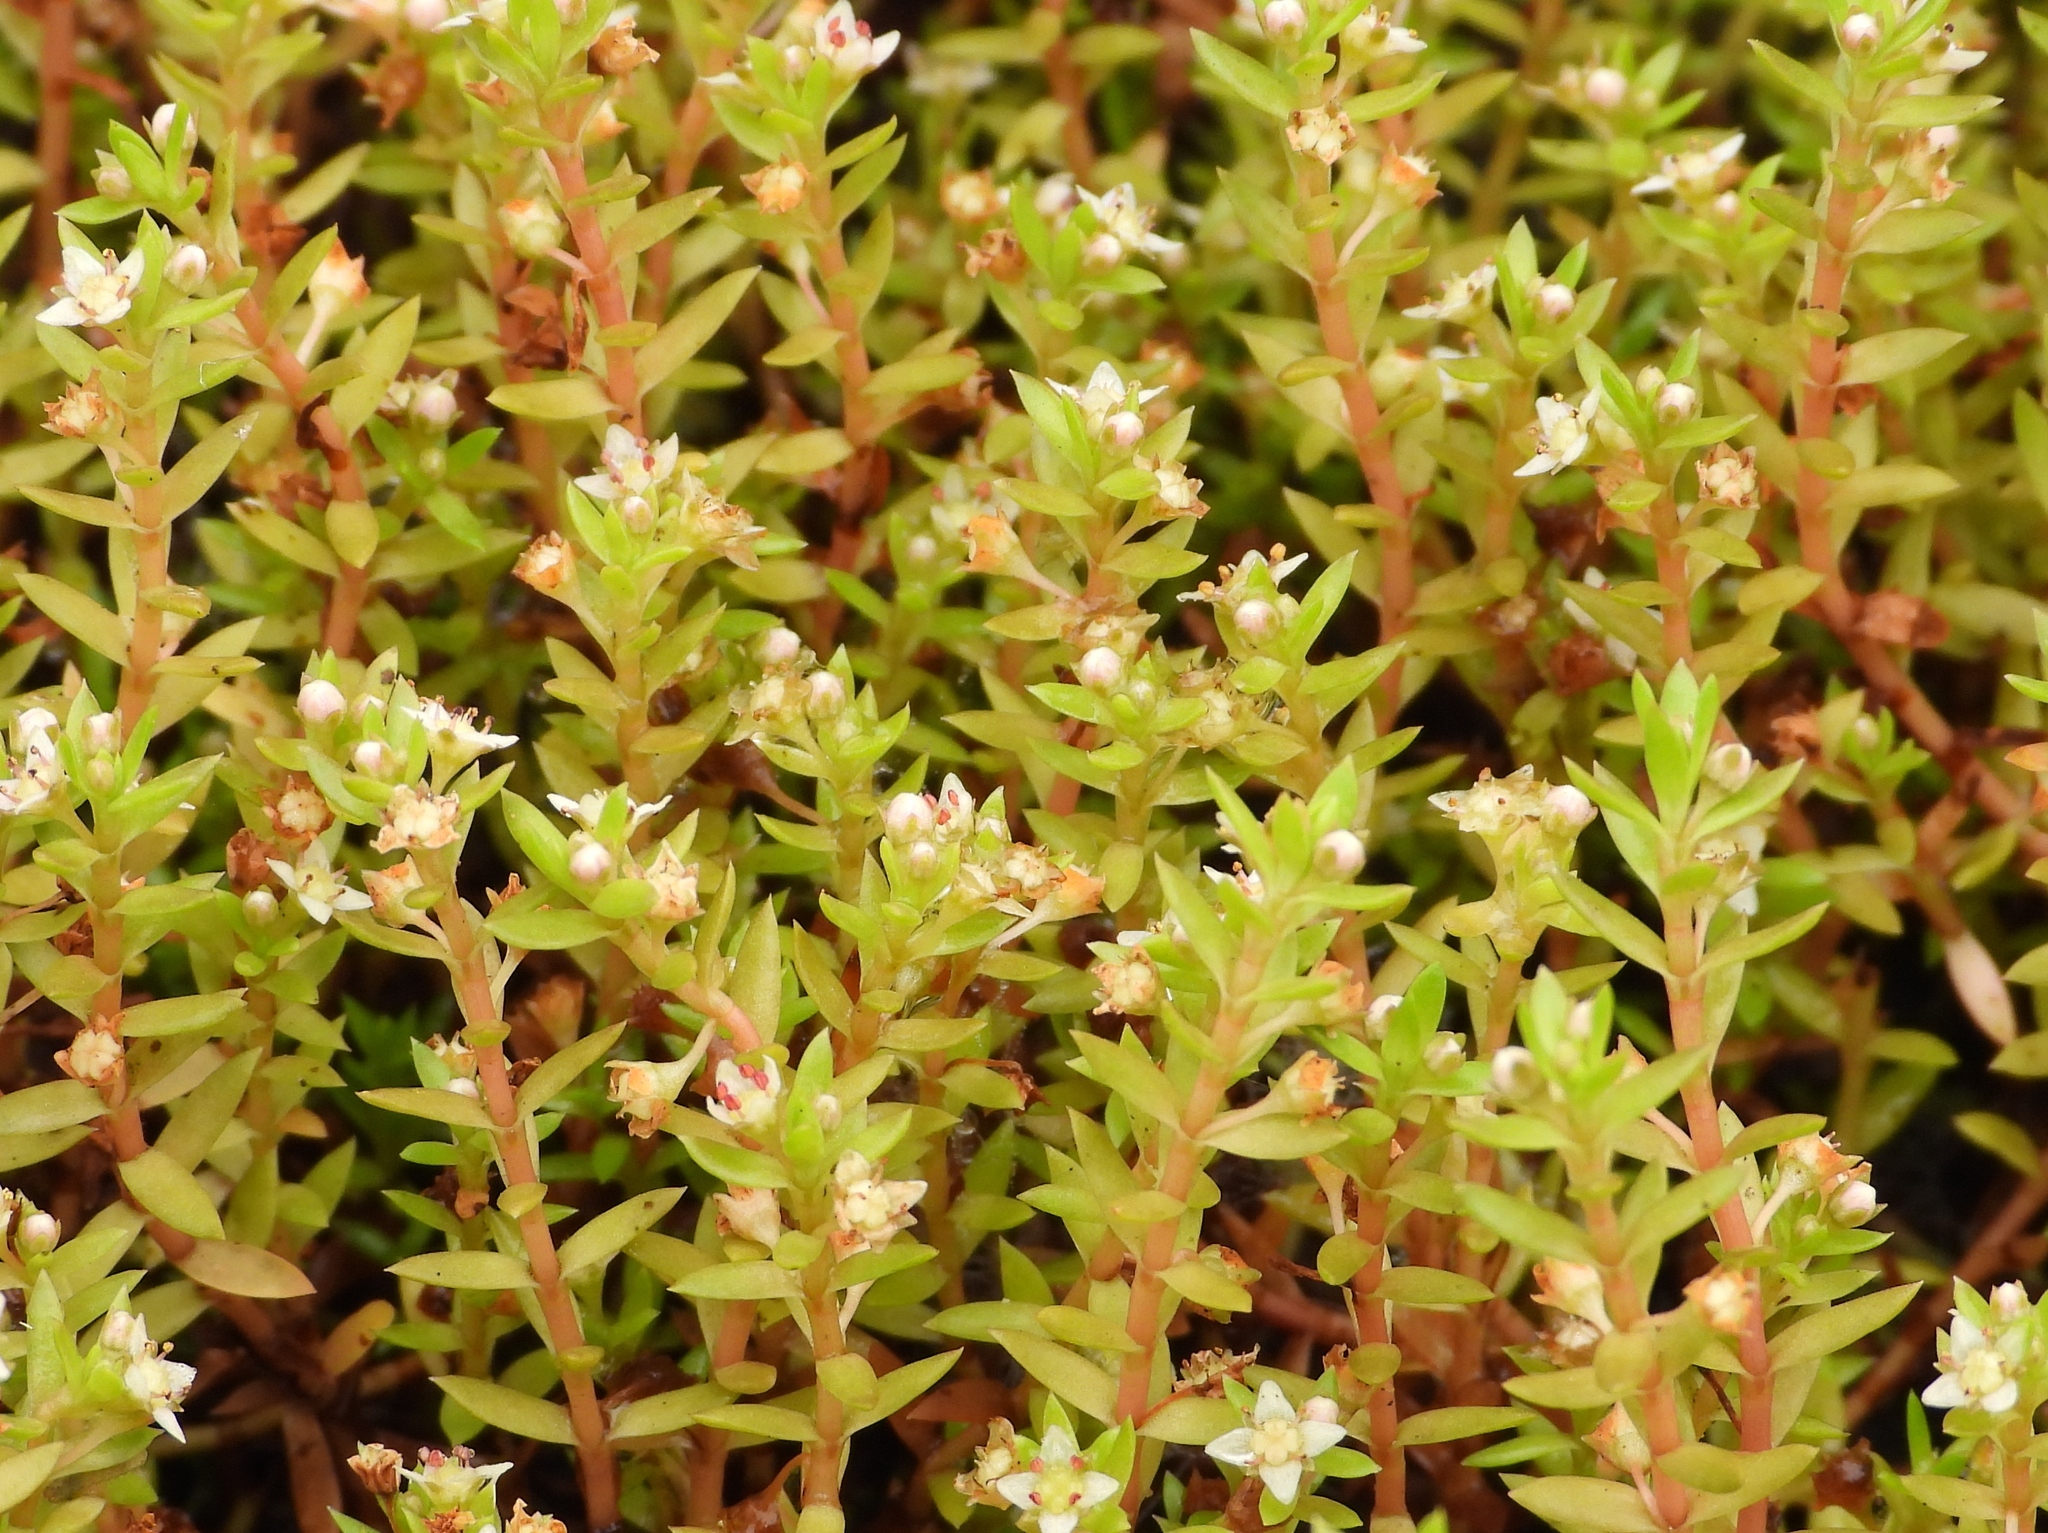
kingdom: Plantae
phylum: Tracheophyta
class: Magnoliopsida
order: Saxifragales
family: Crassulaceae
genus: Crassula
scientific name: Crassula helmsii
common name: New zealand pigmyweed
